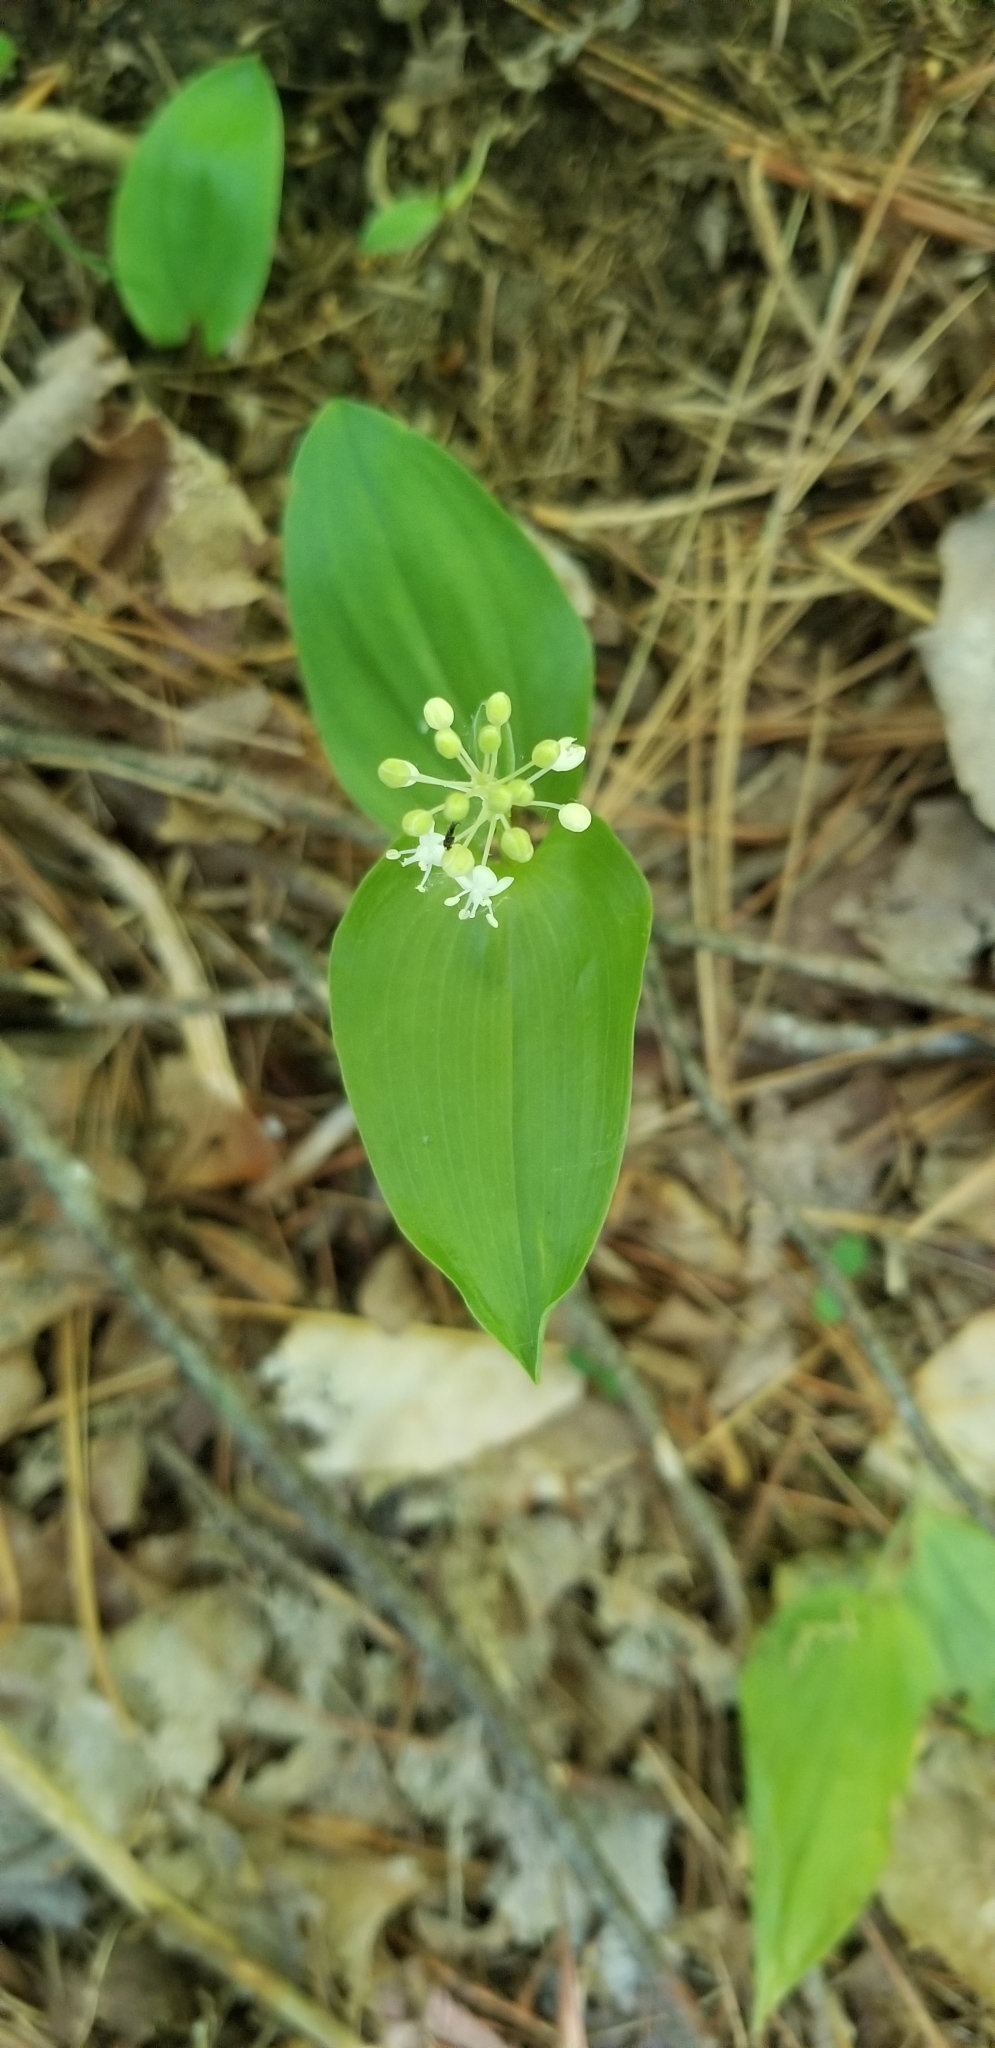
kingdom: Plantae
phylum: Tracheophyta
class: Liliopsida
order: Asparagales
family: Asparagaceae
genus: Maianthemum
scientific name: Maianthemum canadense
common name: False lily-of-the-valley
